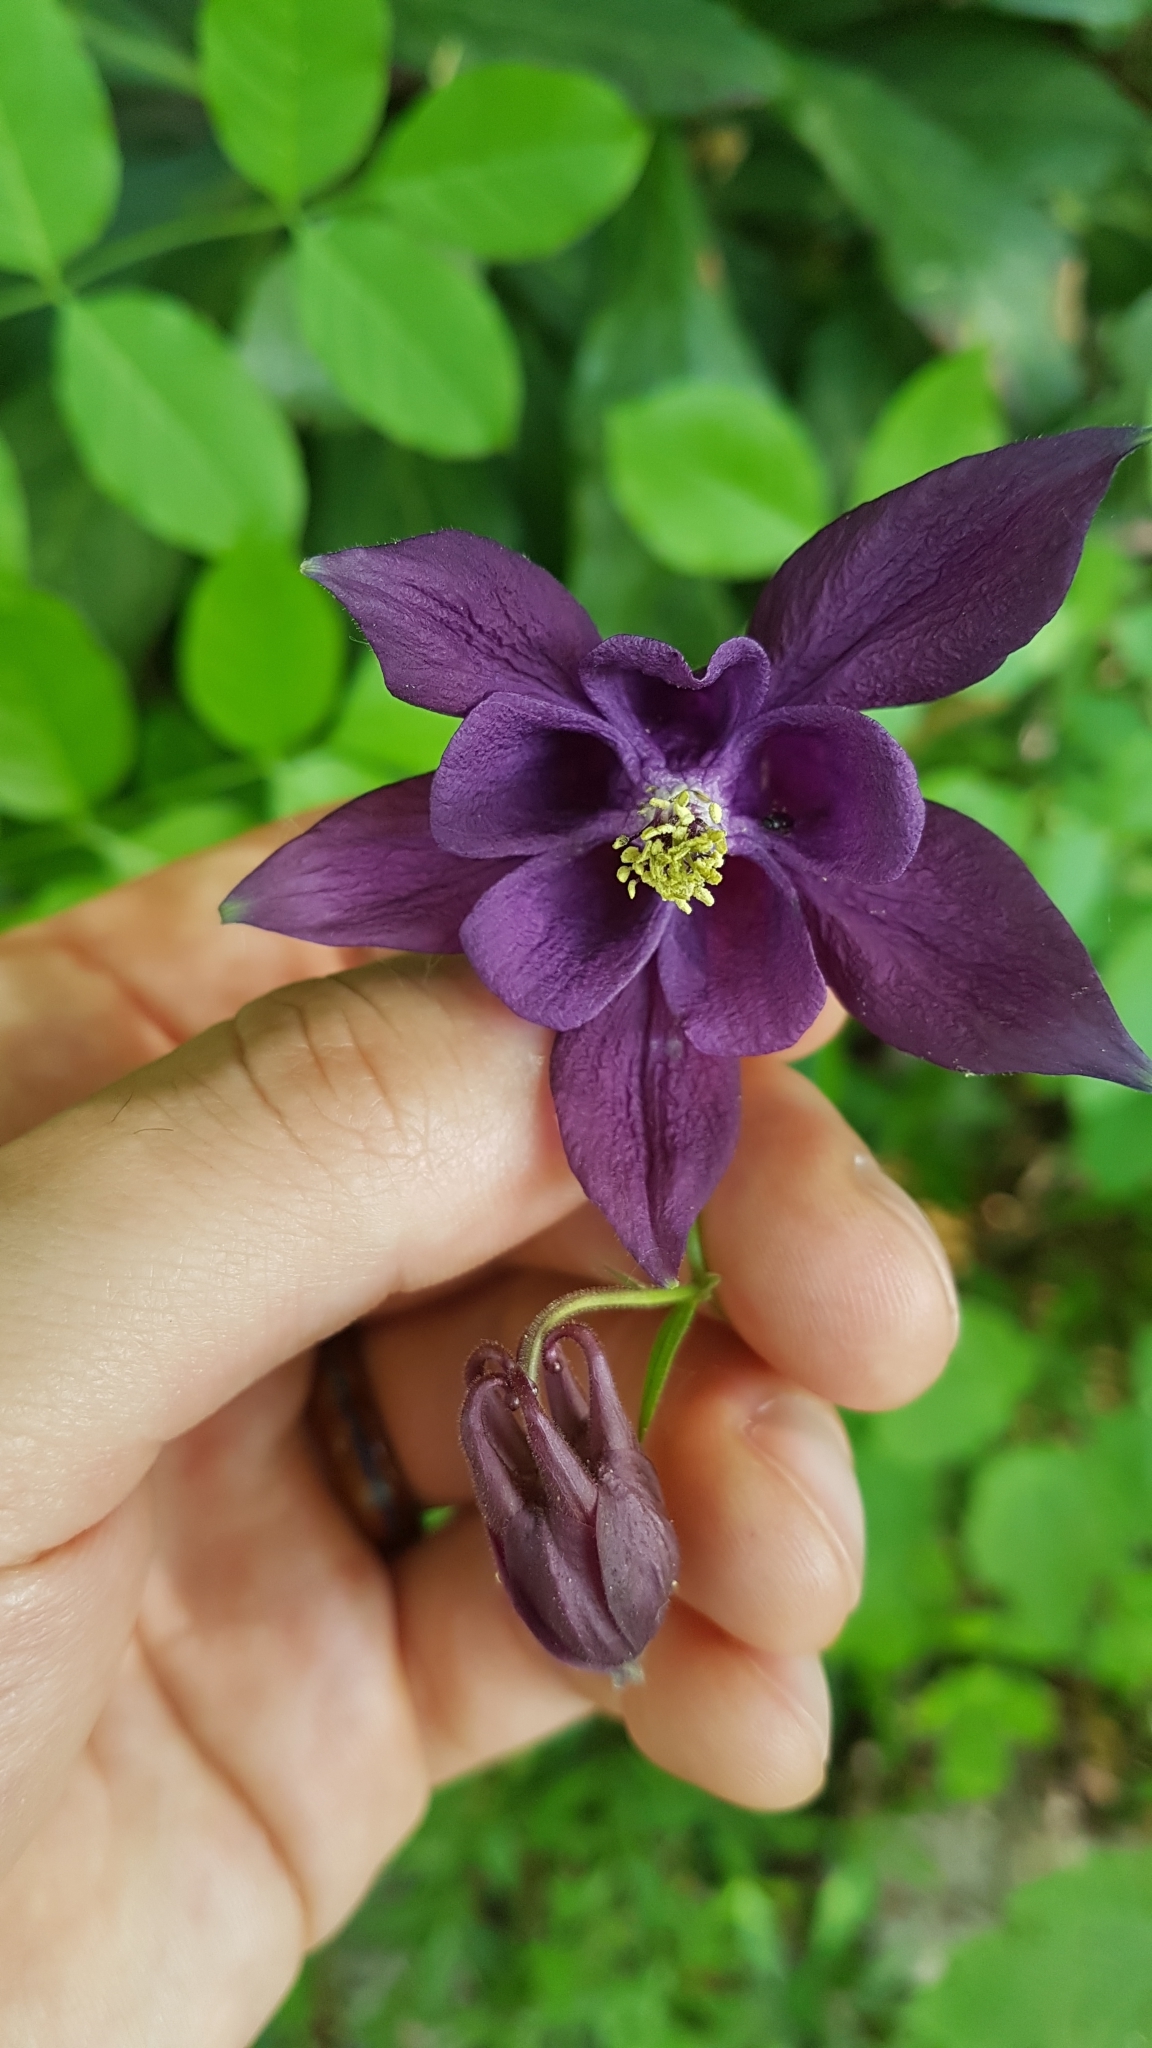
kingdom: Plantae
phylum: Tracheophyta
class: Magnoliopsida
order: Ranunculales
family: Ranunculaceae
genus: Aquilegia
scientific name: Aquilegia atrata
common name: Dark columbine
